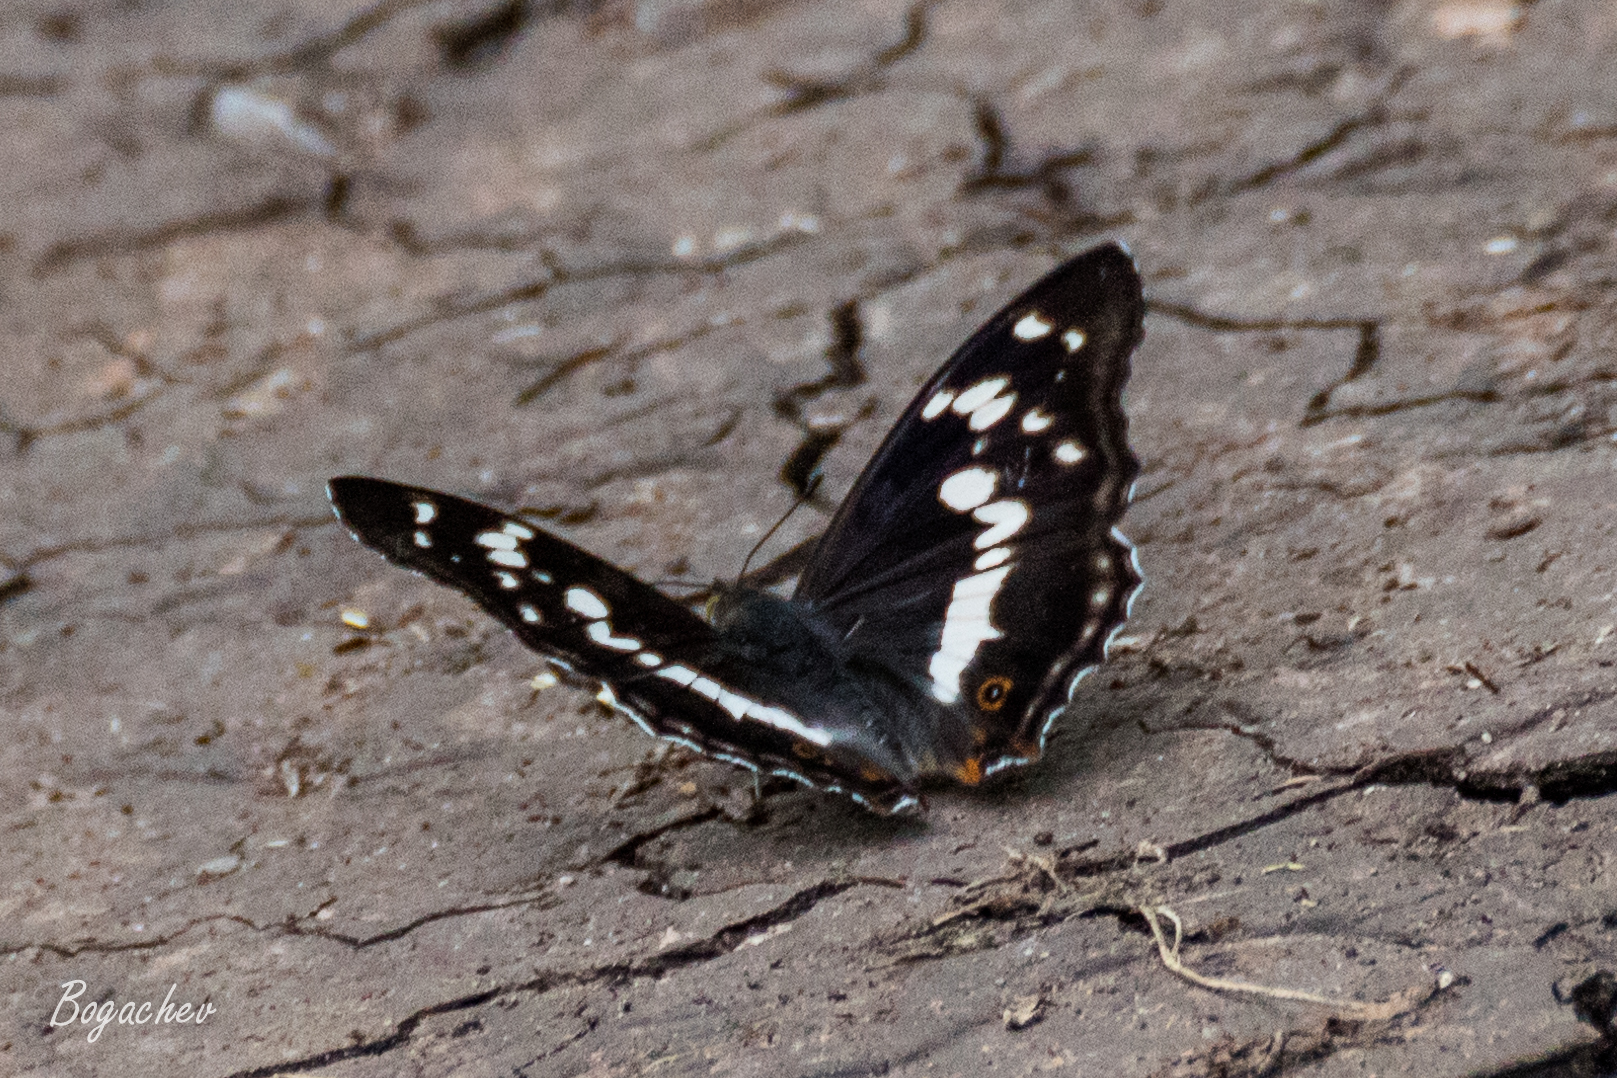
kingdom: Animalia
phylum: Arthropoda
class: Insecta
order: Lepidoptera
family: Nymphalidae
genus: Apatura
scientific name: Apatura iris
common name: Purple emperor
